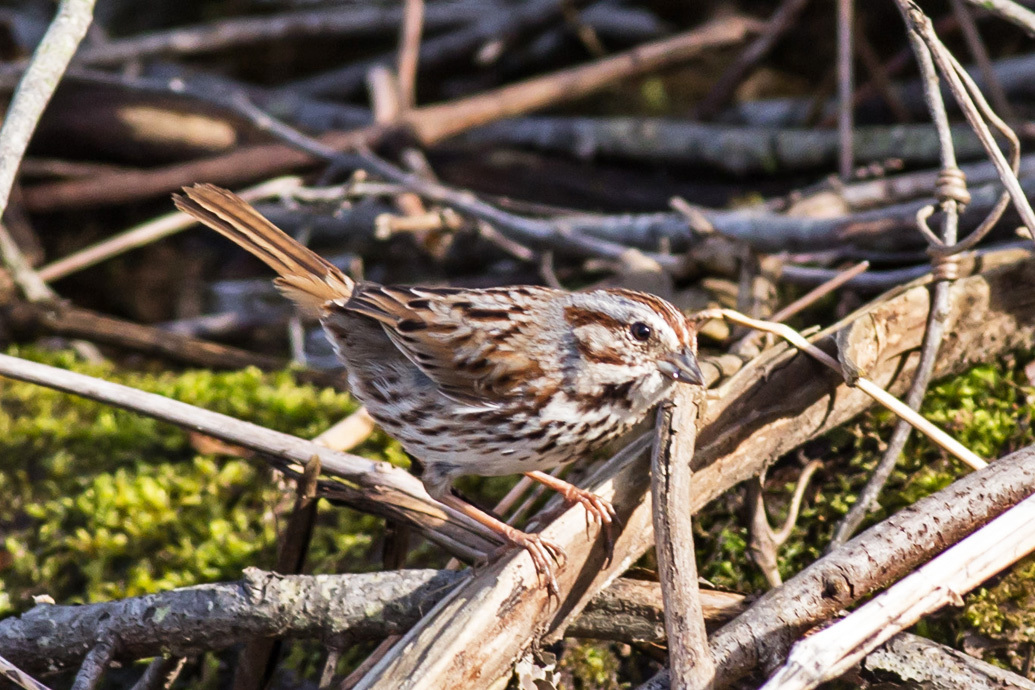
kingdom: Animalia
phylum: Chordata
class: Aves
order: Passeriformes
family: Passerellidae
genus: Melospiza
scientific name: Melospiza melodia
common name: Song sparrow
